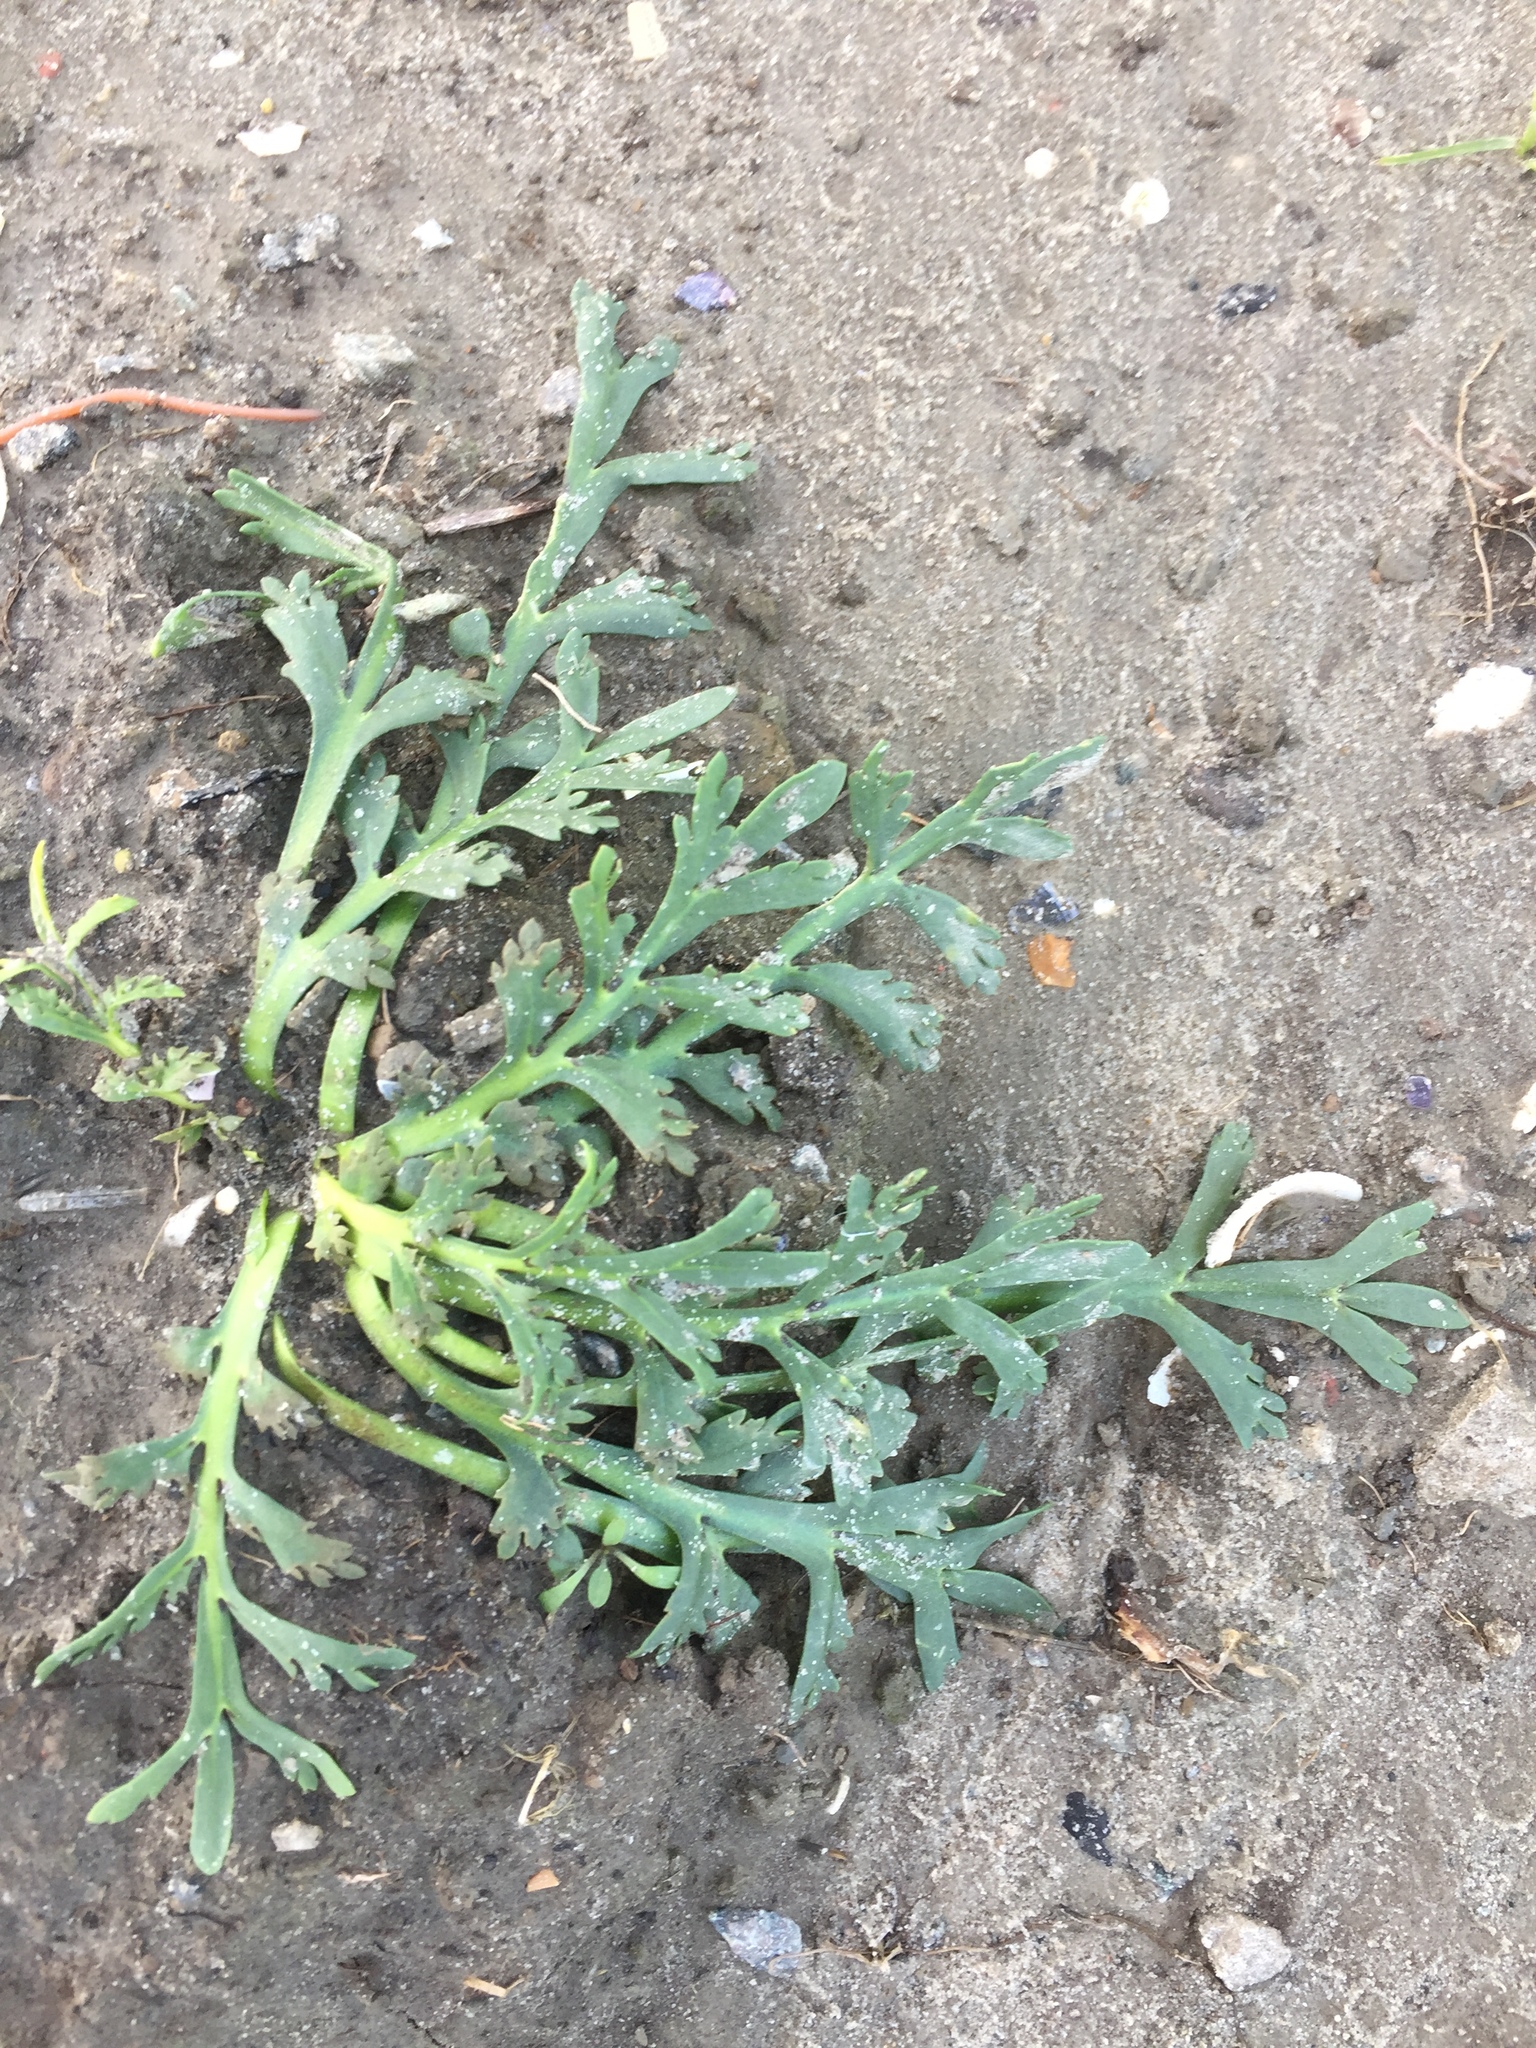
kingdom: Plantae
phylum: Tracheophyta
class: Magnoliopsida
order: Brassicales
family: Brassicaceae
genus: Lepidium
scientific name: Lepidium coronopus
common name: Greater swinecress
